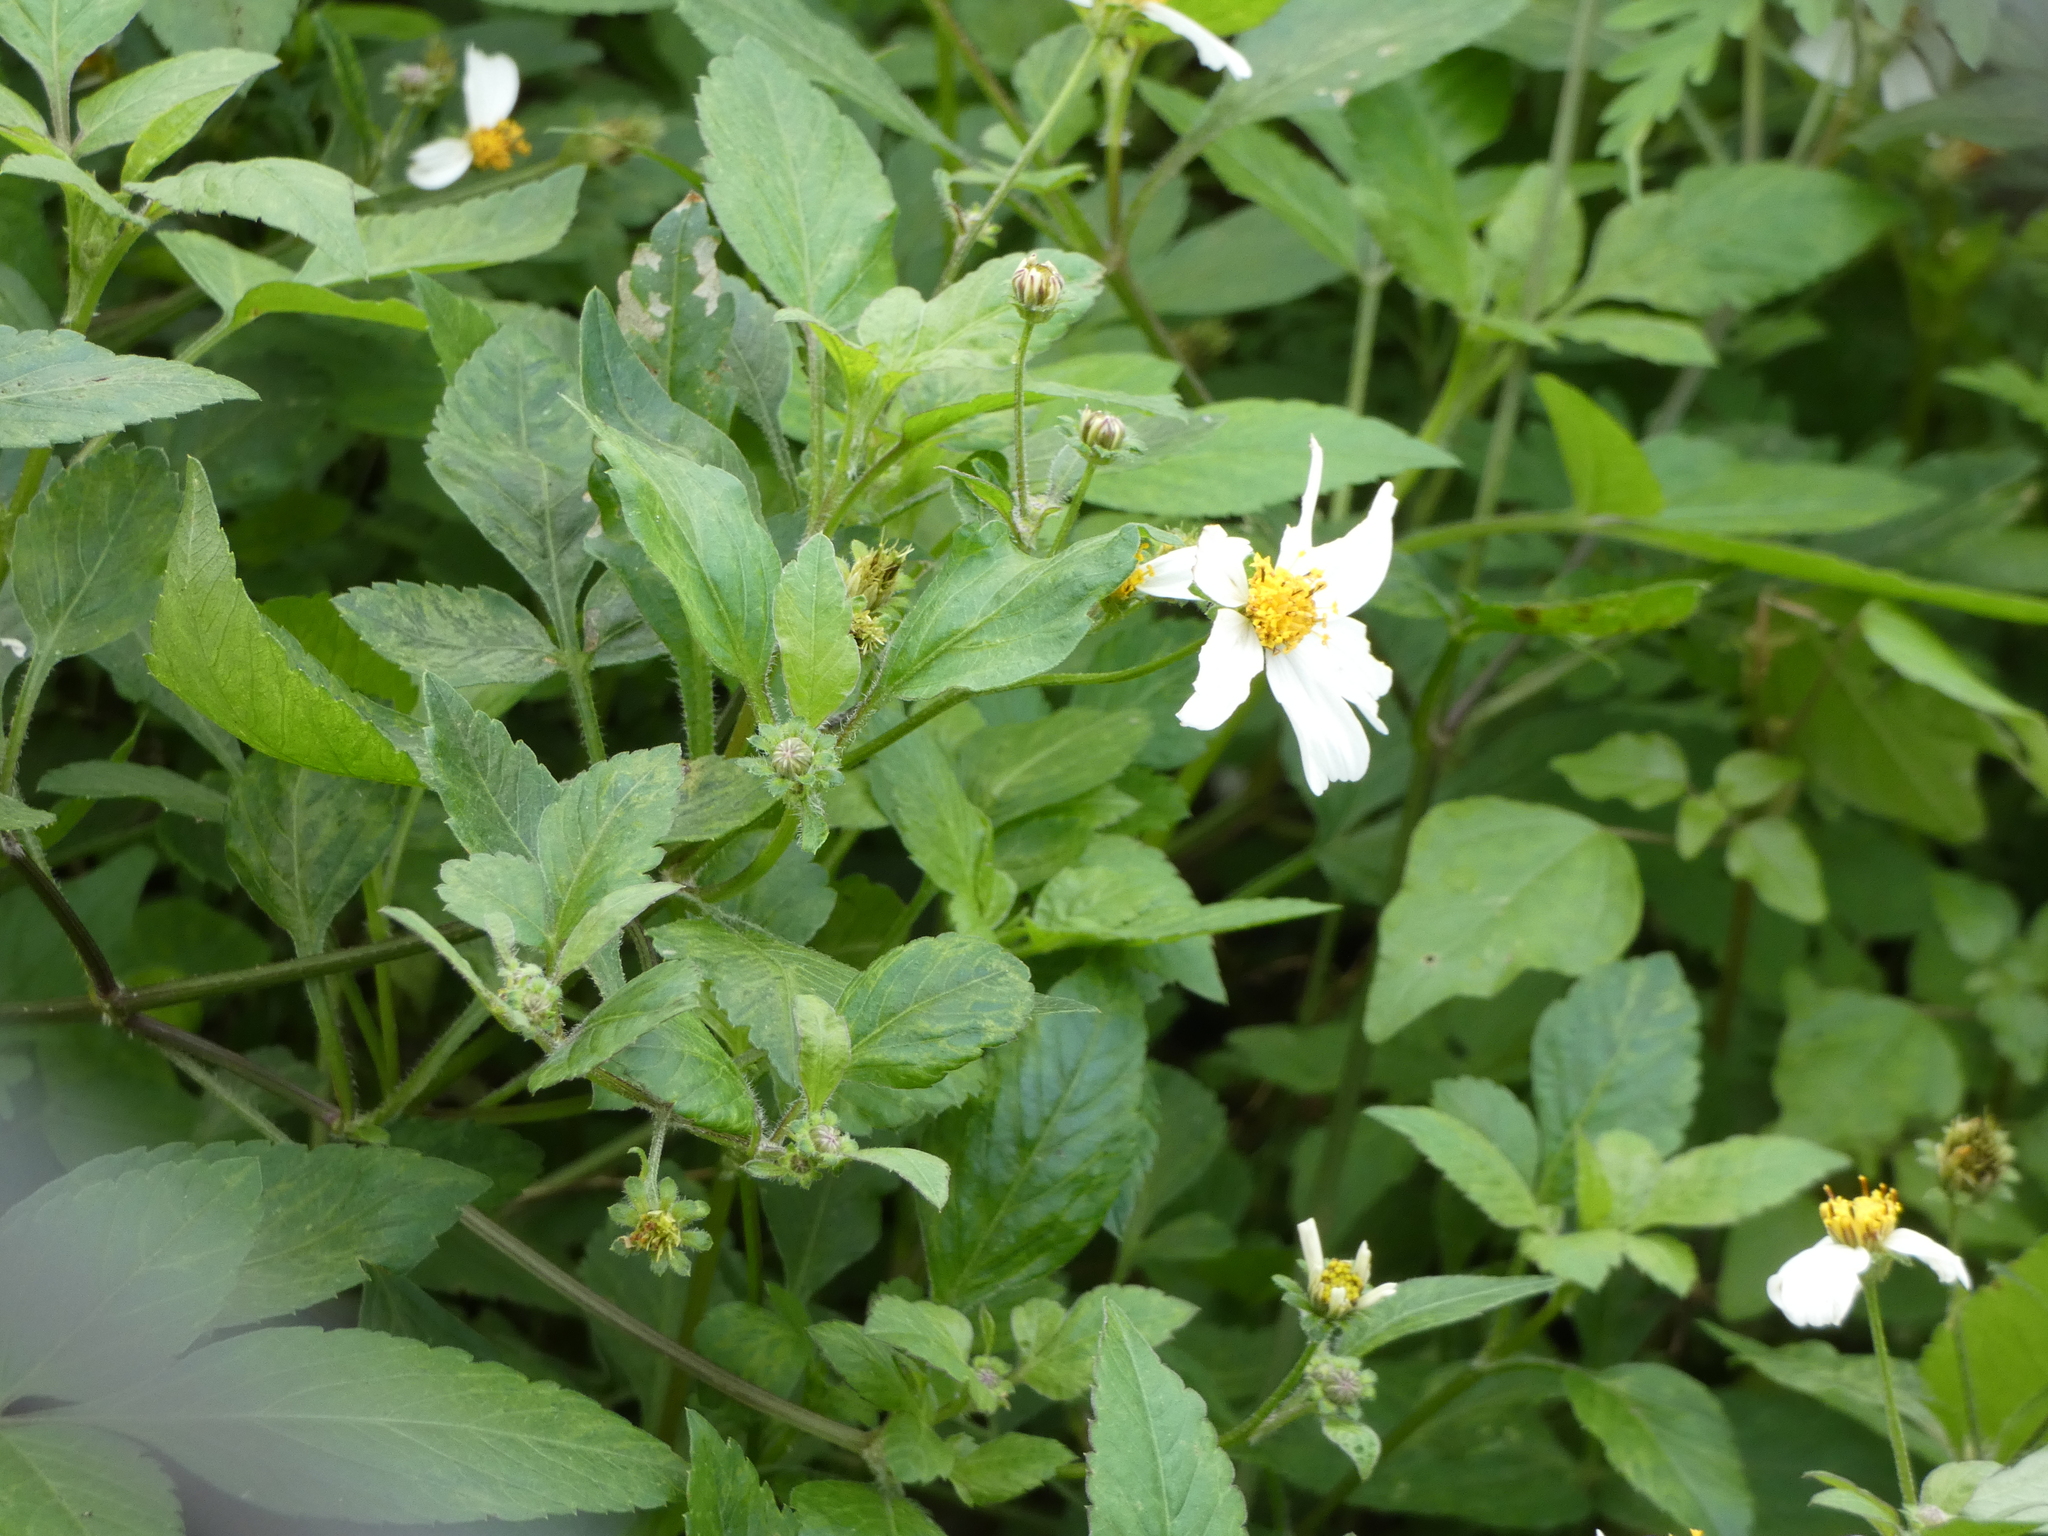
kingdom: Plantae
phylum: Tracheophyta
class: Magnoliopsida
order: Asterales
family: Asteraceae
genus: Bidens
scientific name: Bidens alba
